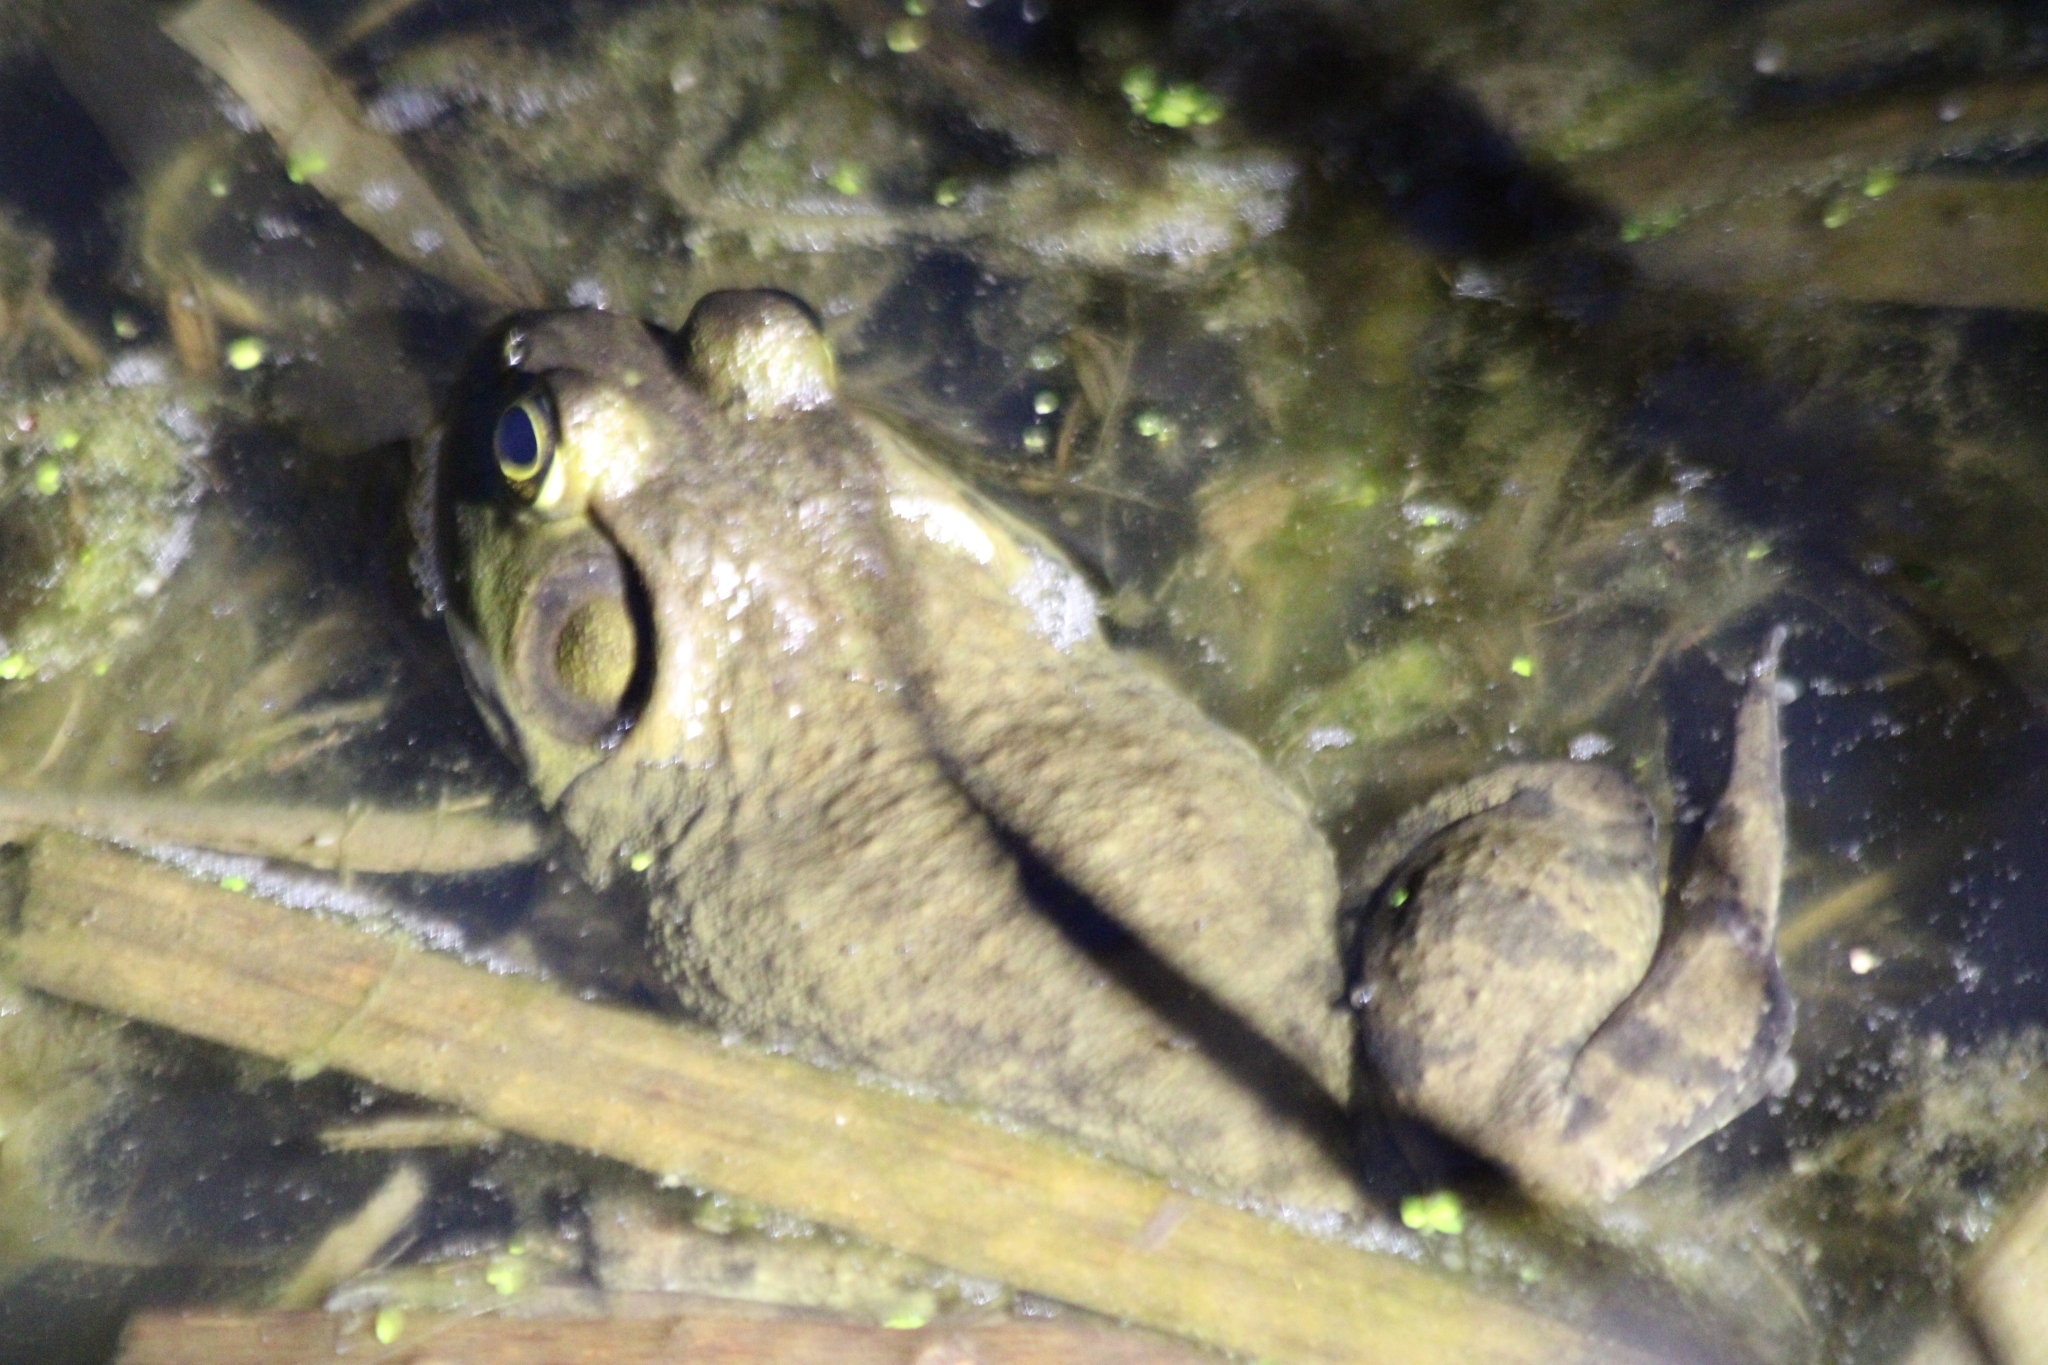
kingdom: Animalia
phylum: Chordata
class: Amphibia
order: Anura
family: Ranidae
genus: Lithobates
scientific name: Lithobates catesbeianus
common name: American bullfrog
